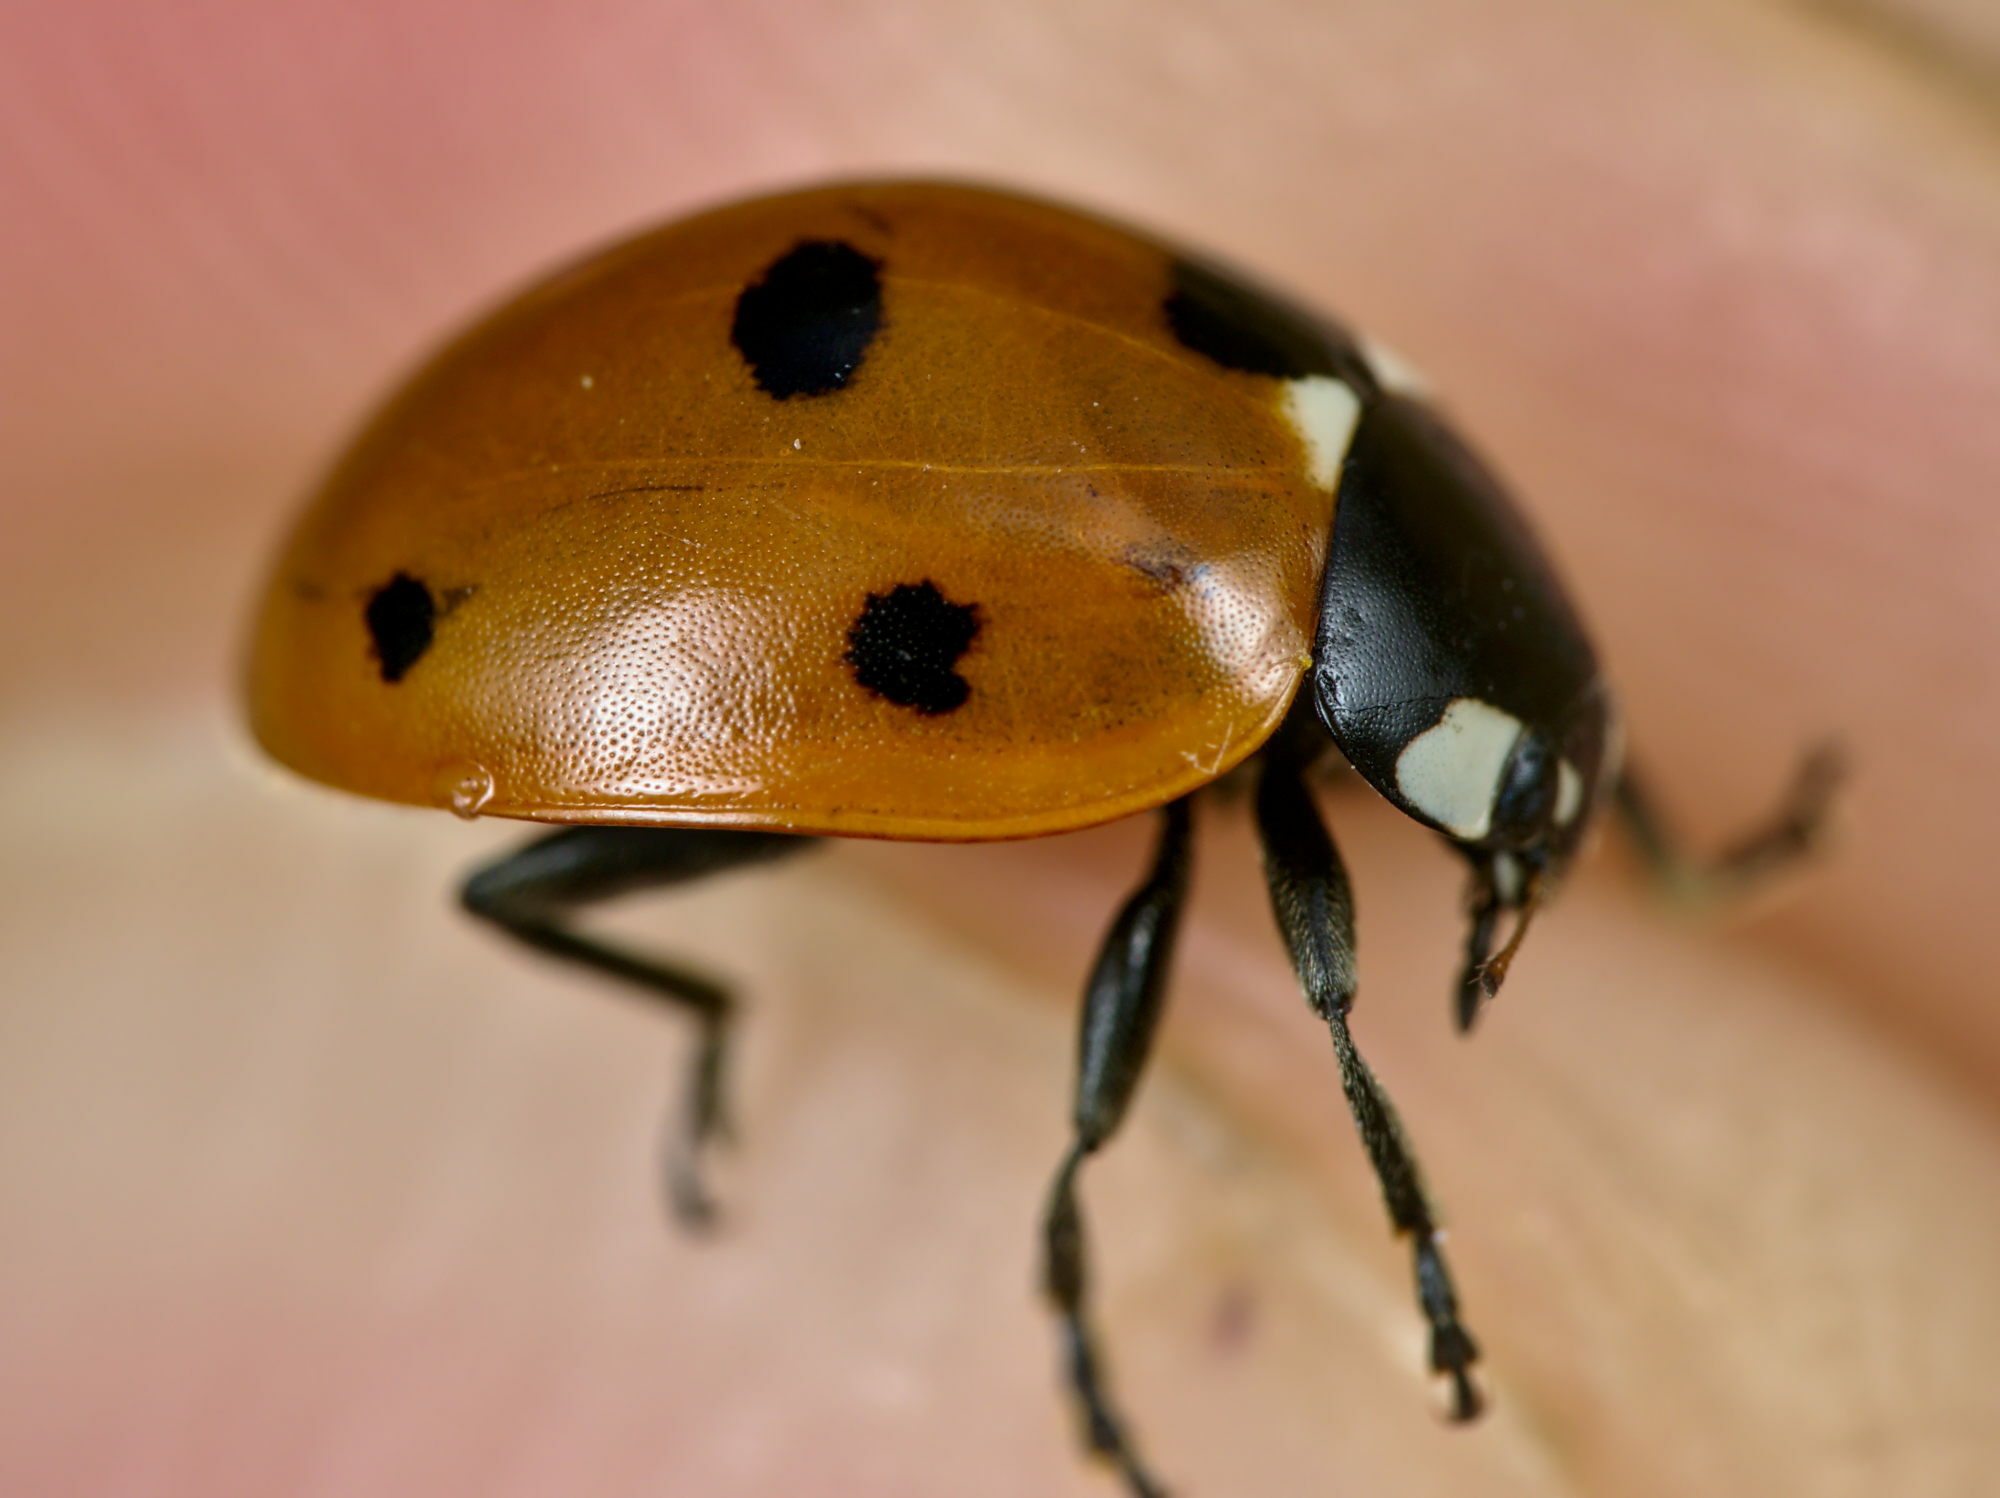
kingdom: Animalia
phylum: Arthropoda
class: Insecta
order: Coleoptera
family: Coccinellidae
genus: Coccinella
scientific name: Coccinella septempunctata
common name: Sevenspotted lady beetle
